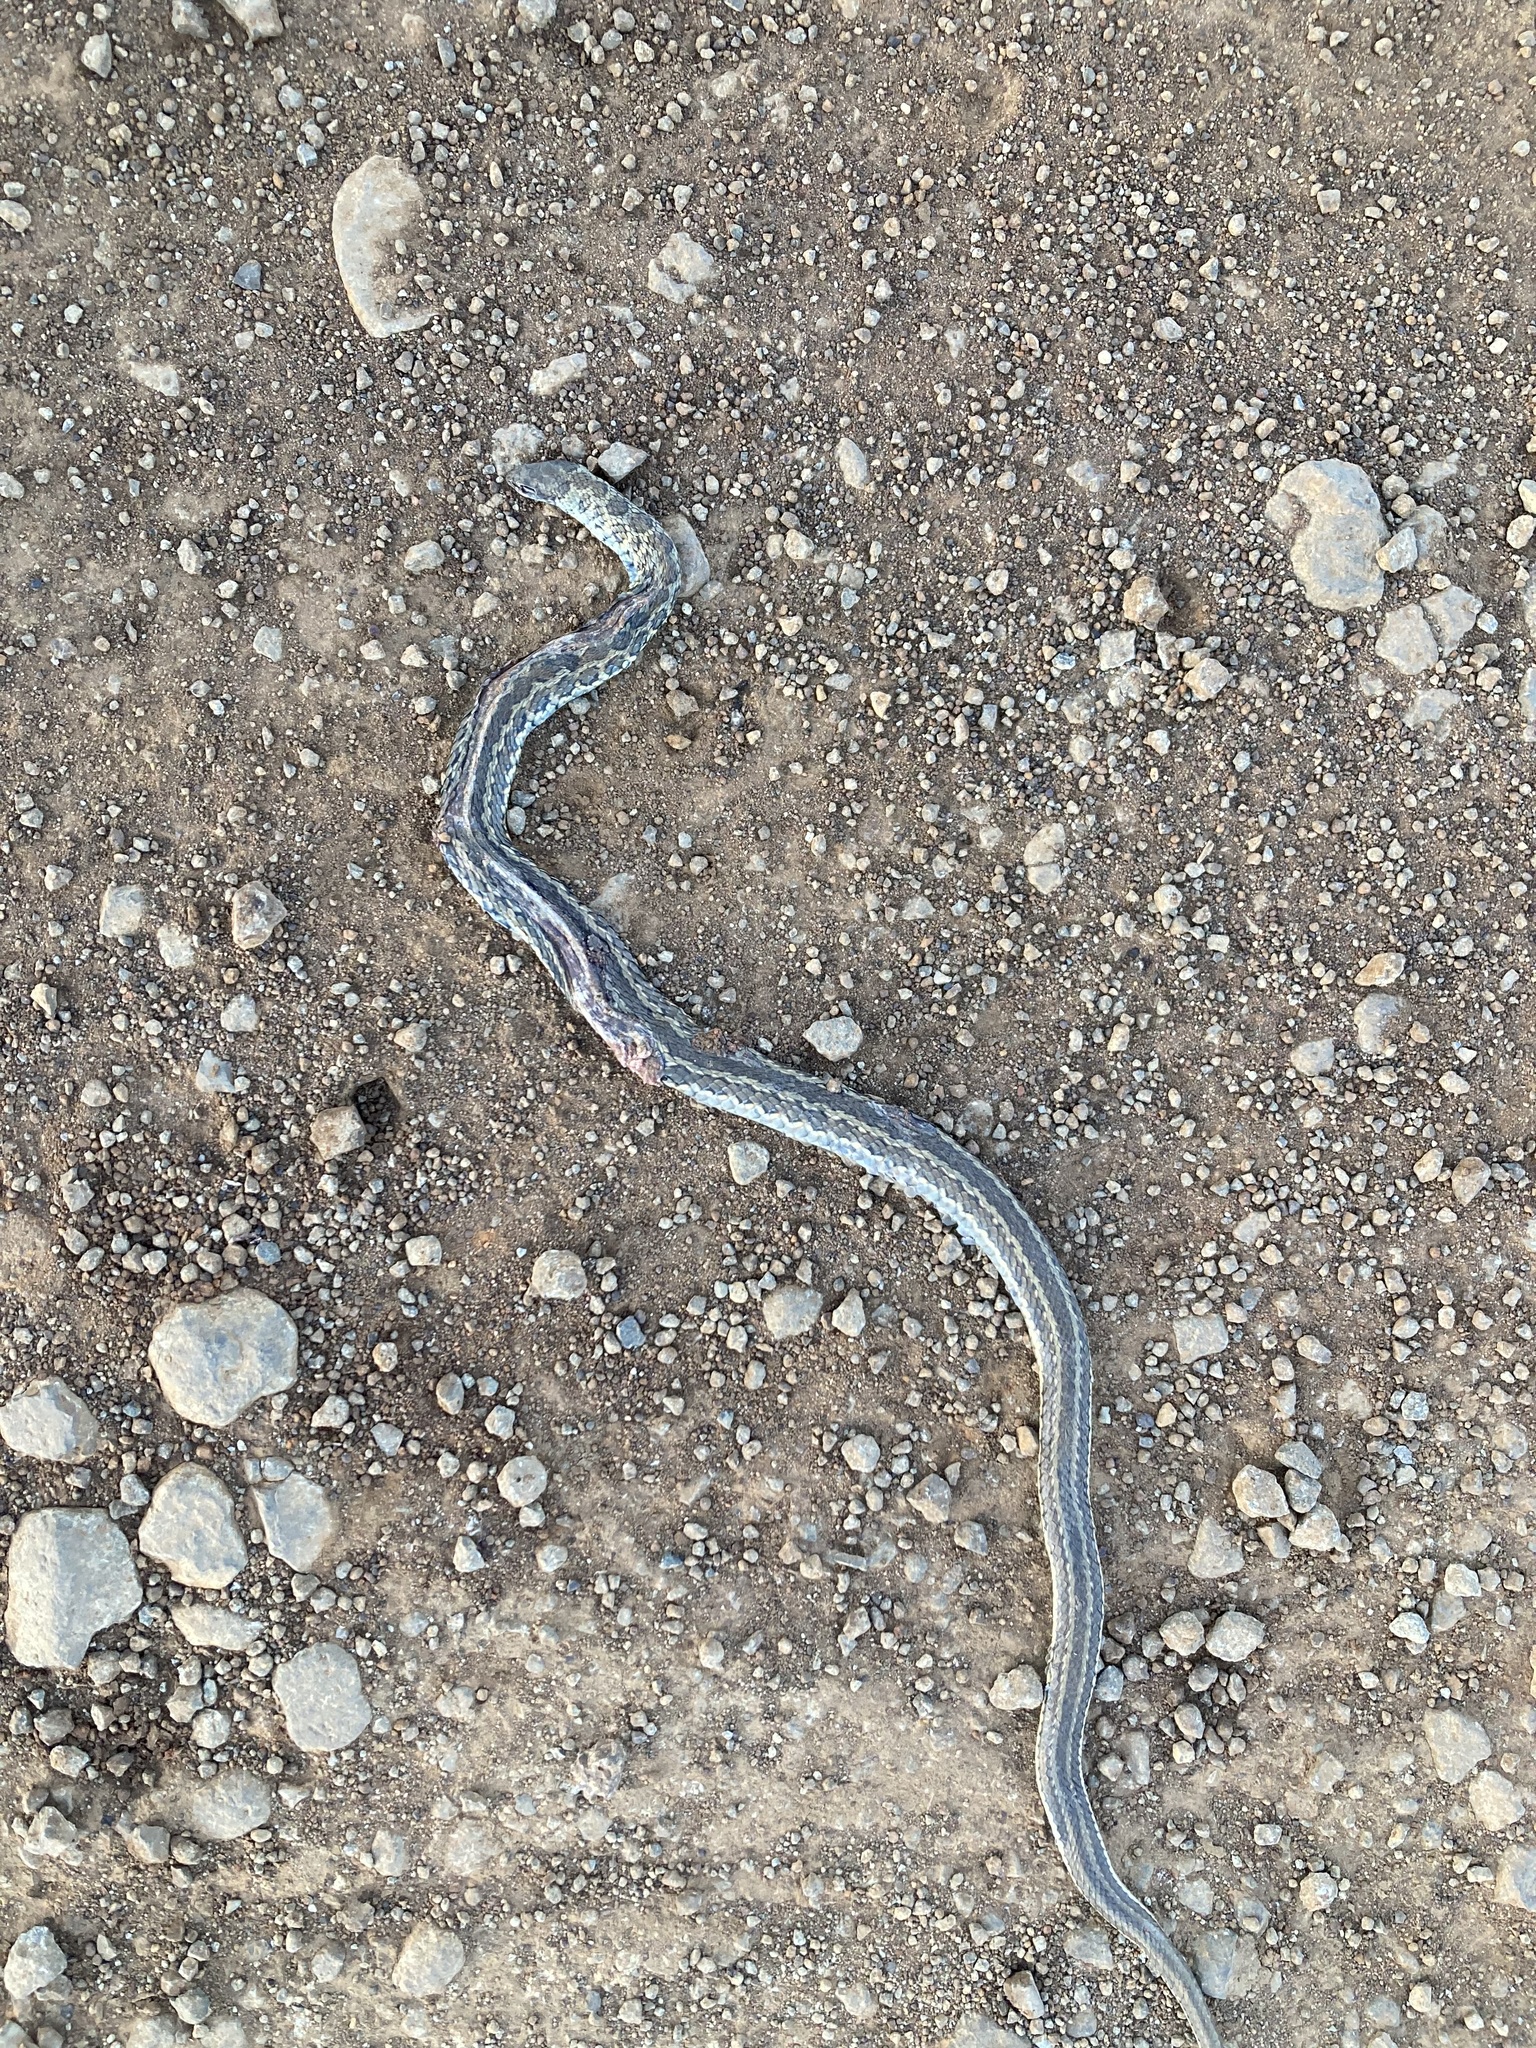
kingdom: Animalia
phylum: Chordata
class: Squamata
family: Psammophiidae
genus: Psammophylax
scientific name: Psammophylax rhombeatus
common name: Rhombic skaapsteker
